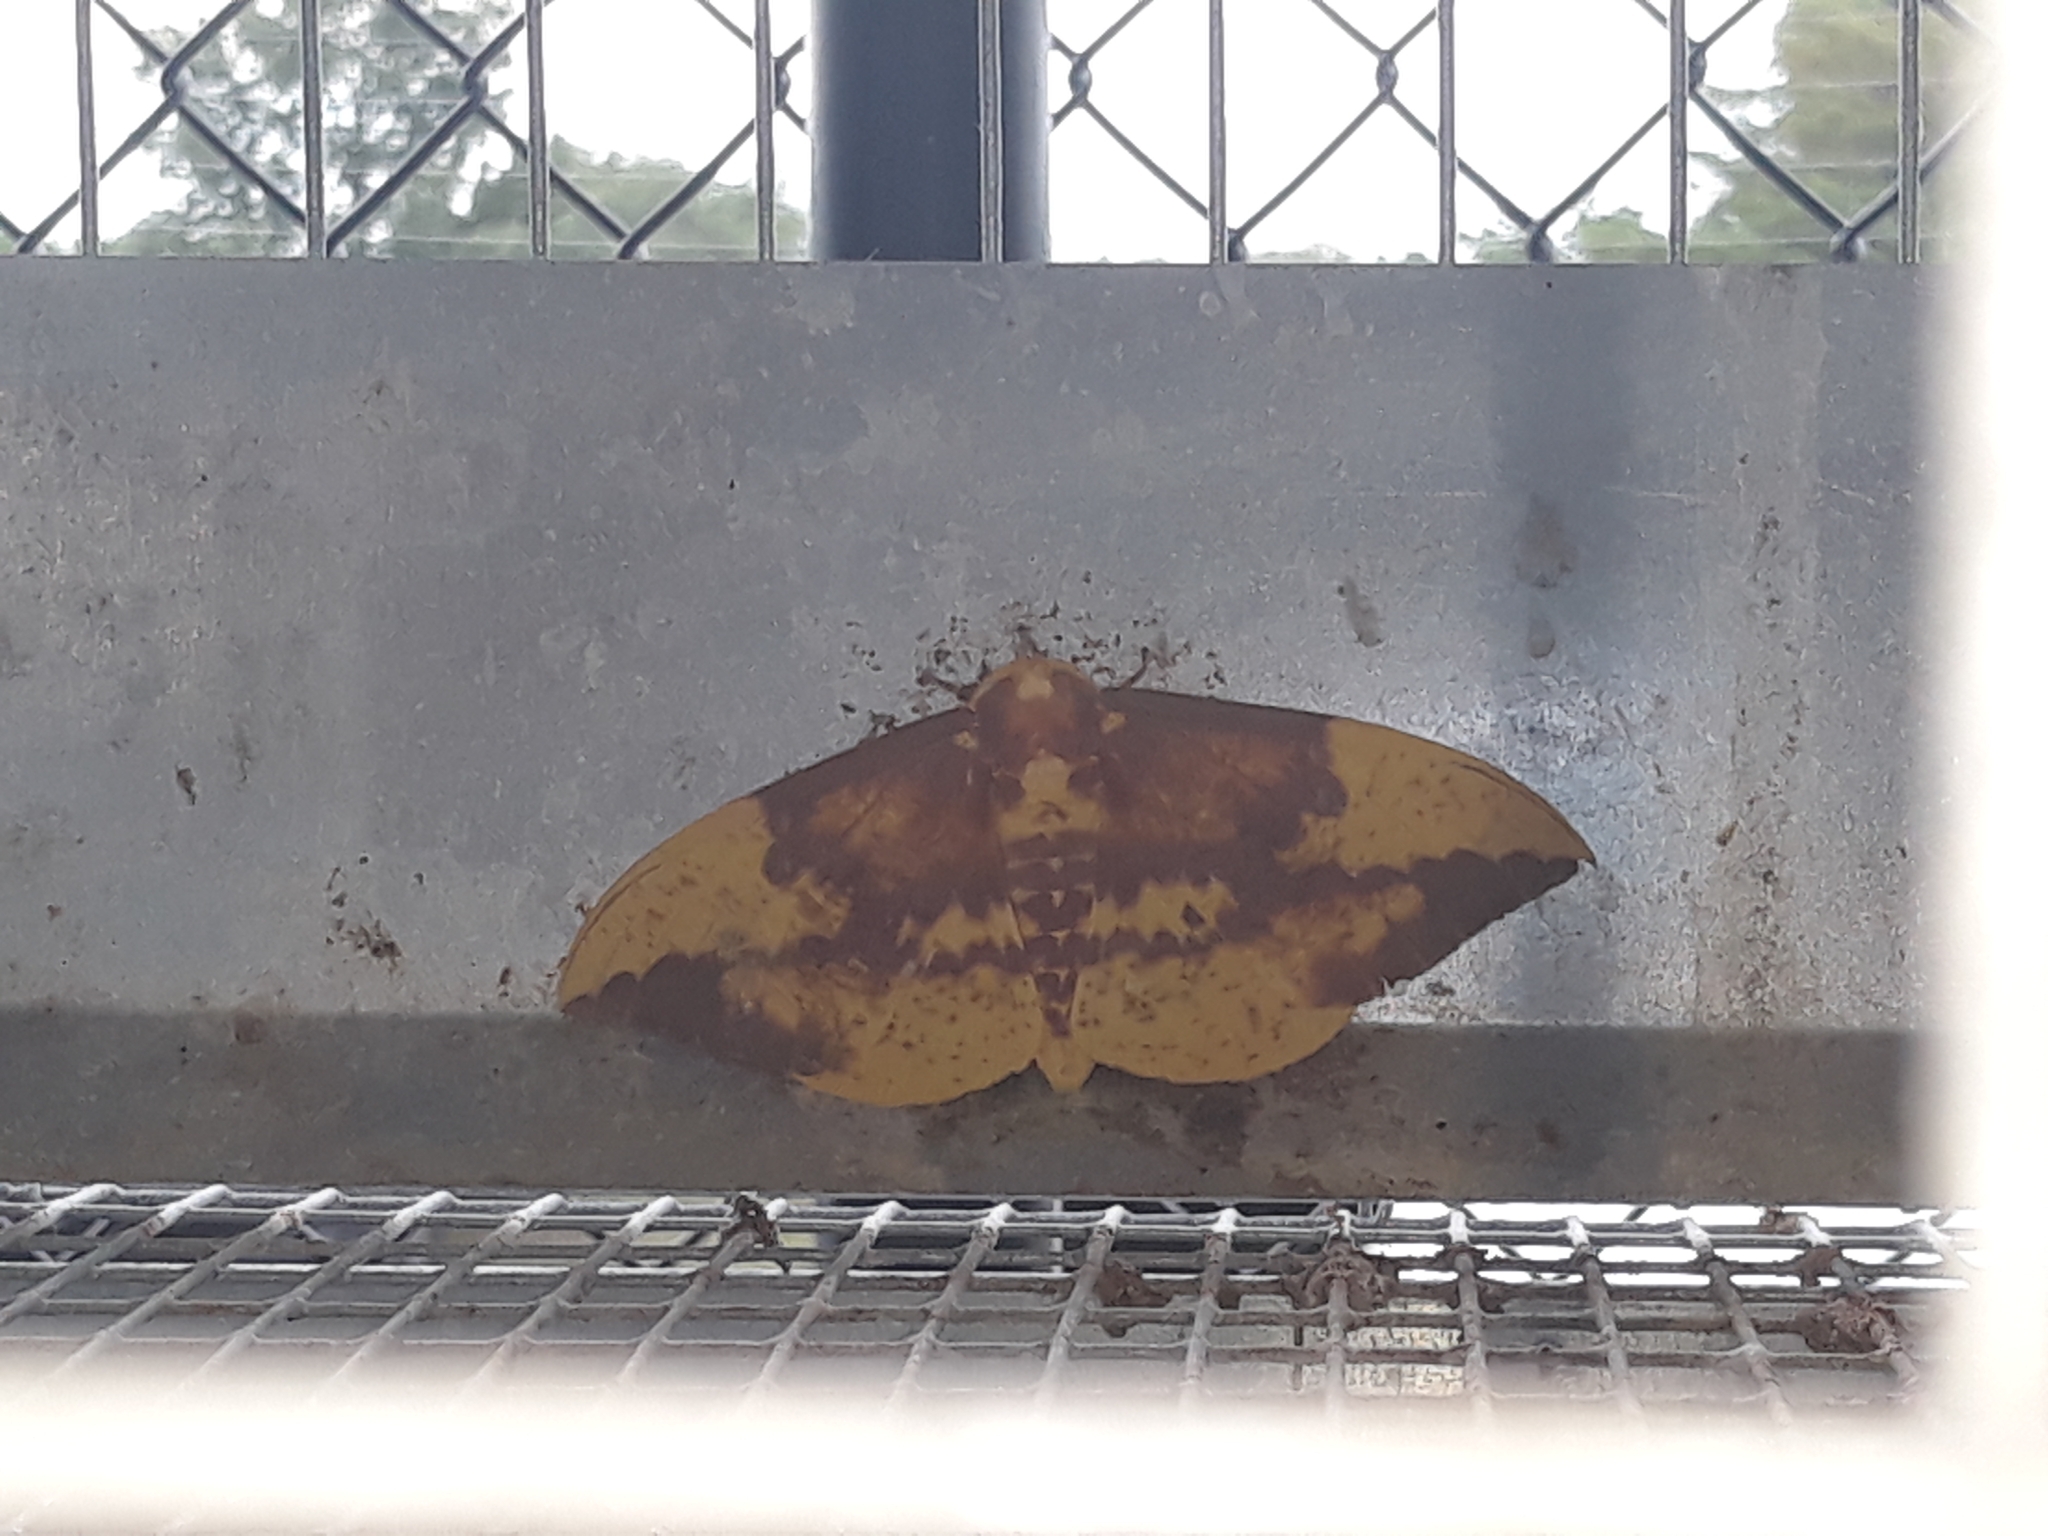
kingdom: Animalia
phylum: Arthropoda
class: Insecta
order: Lepidoptera
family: Saturniidae
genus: Eacles
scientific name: Eacles imperialis
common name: Imperial moth
